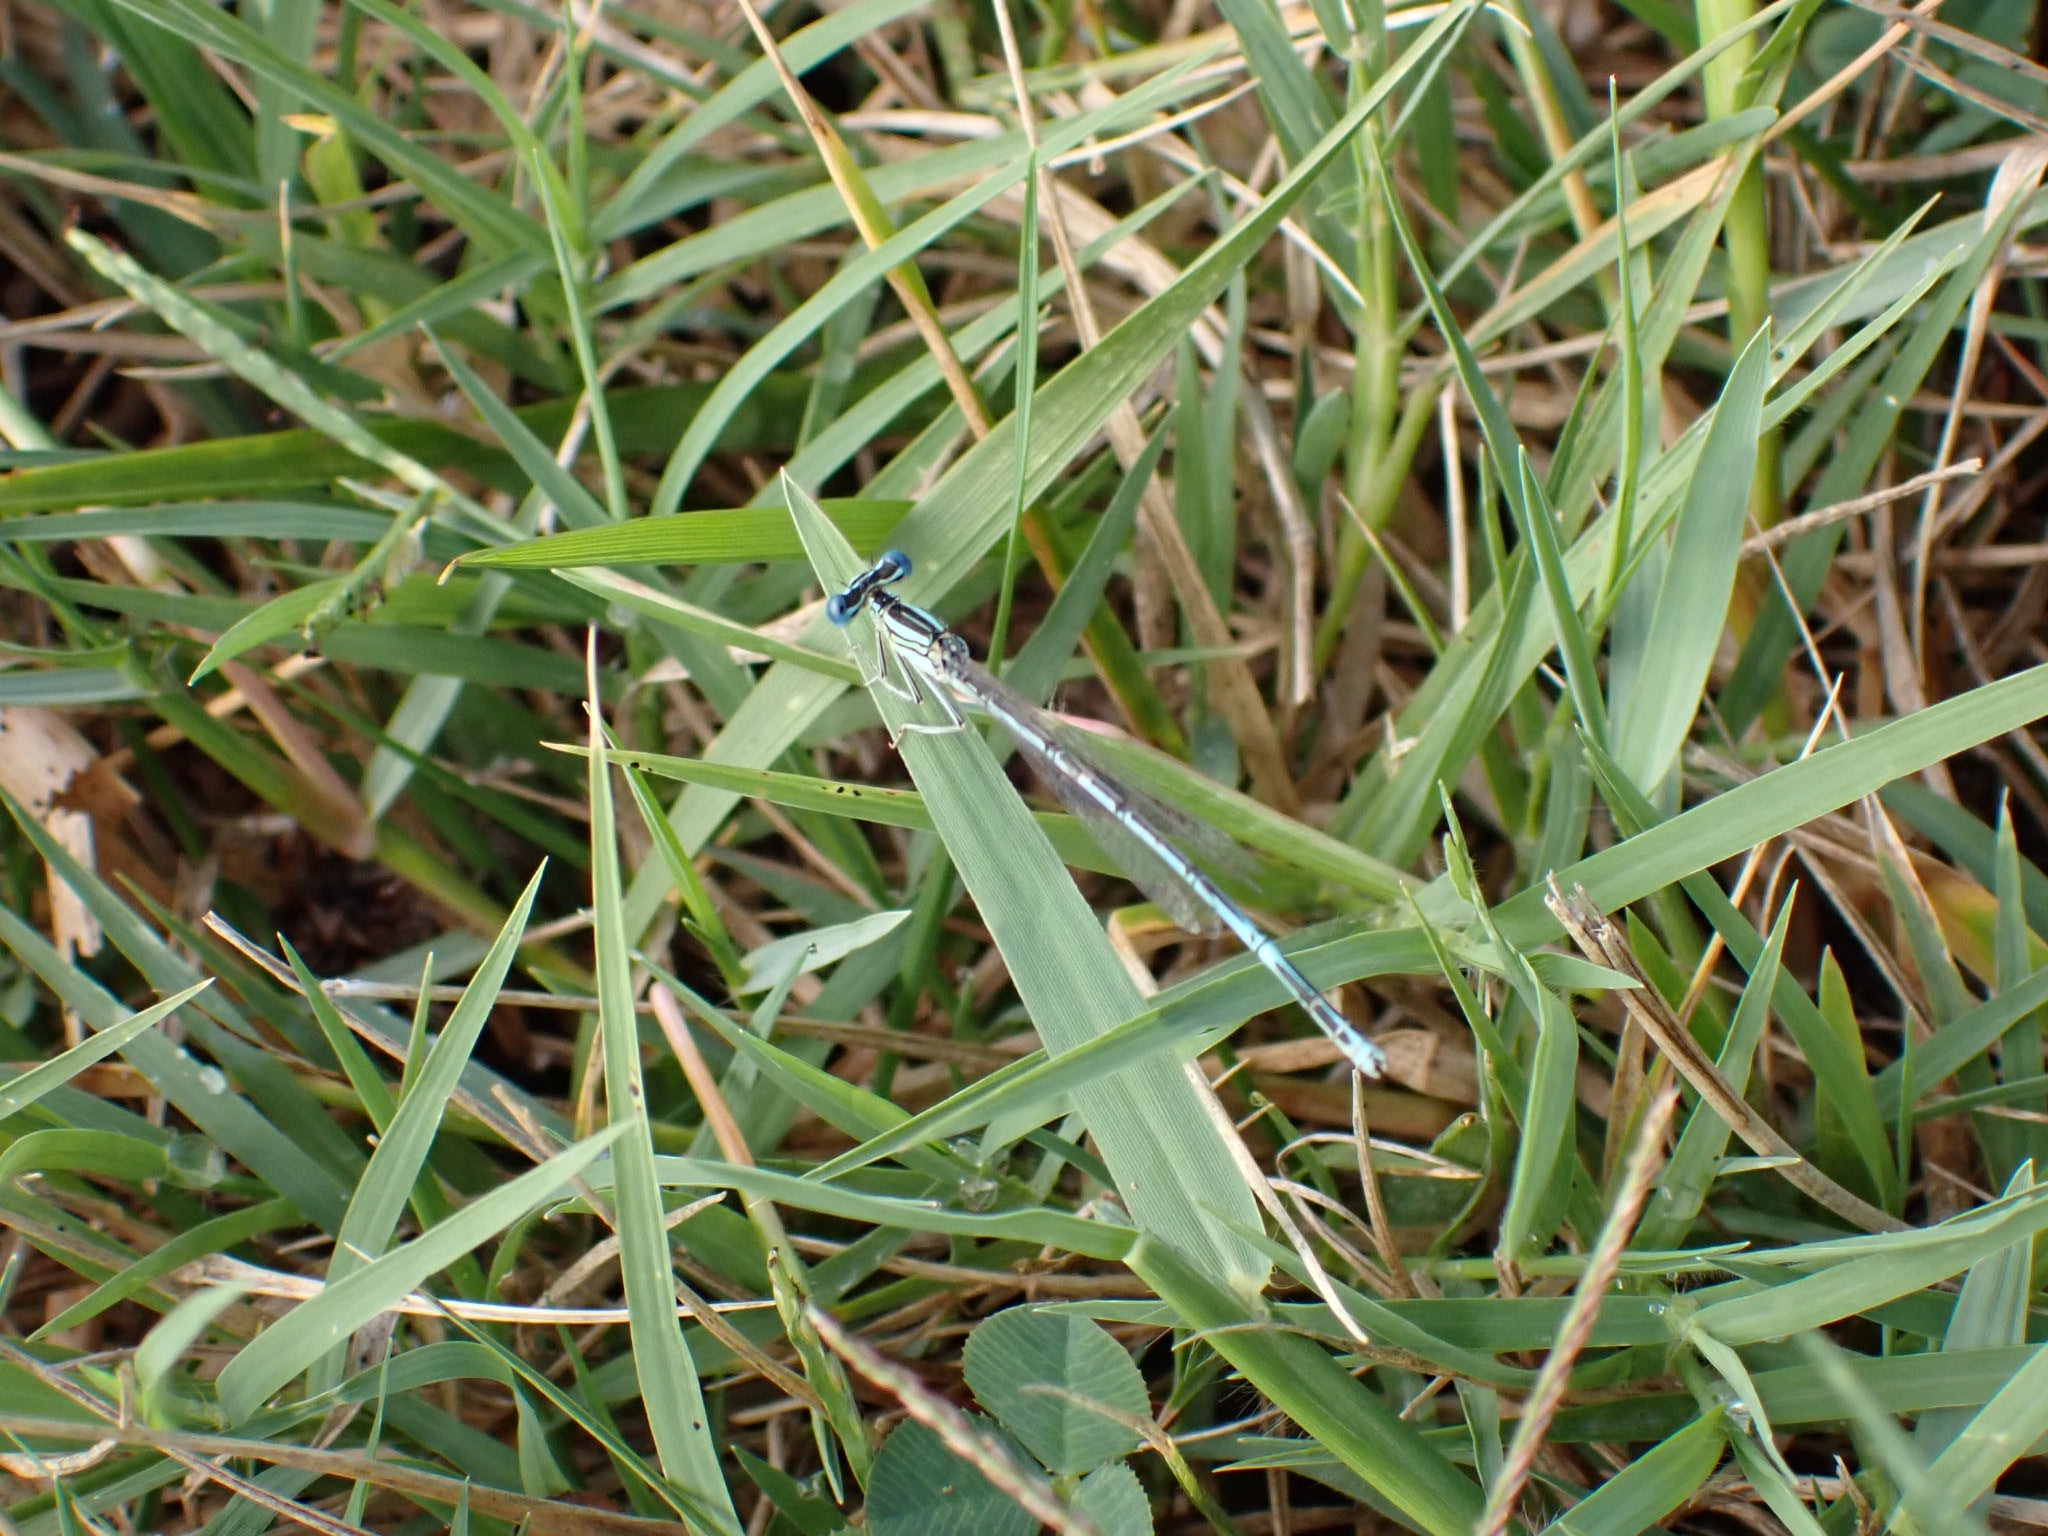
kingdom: Animalia
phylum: Arthropoda
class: Insecta
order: Odonata
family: Platycnemididae
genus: Platycnemis
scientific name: Platycnemis pennipes
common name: White-legged damselfly
